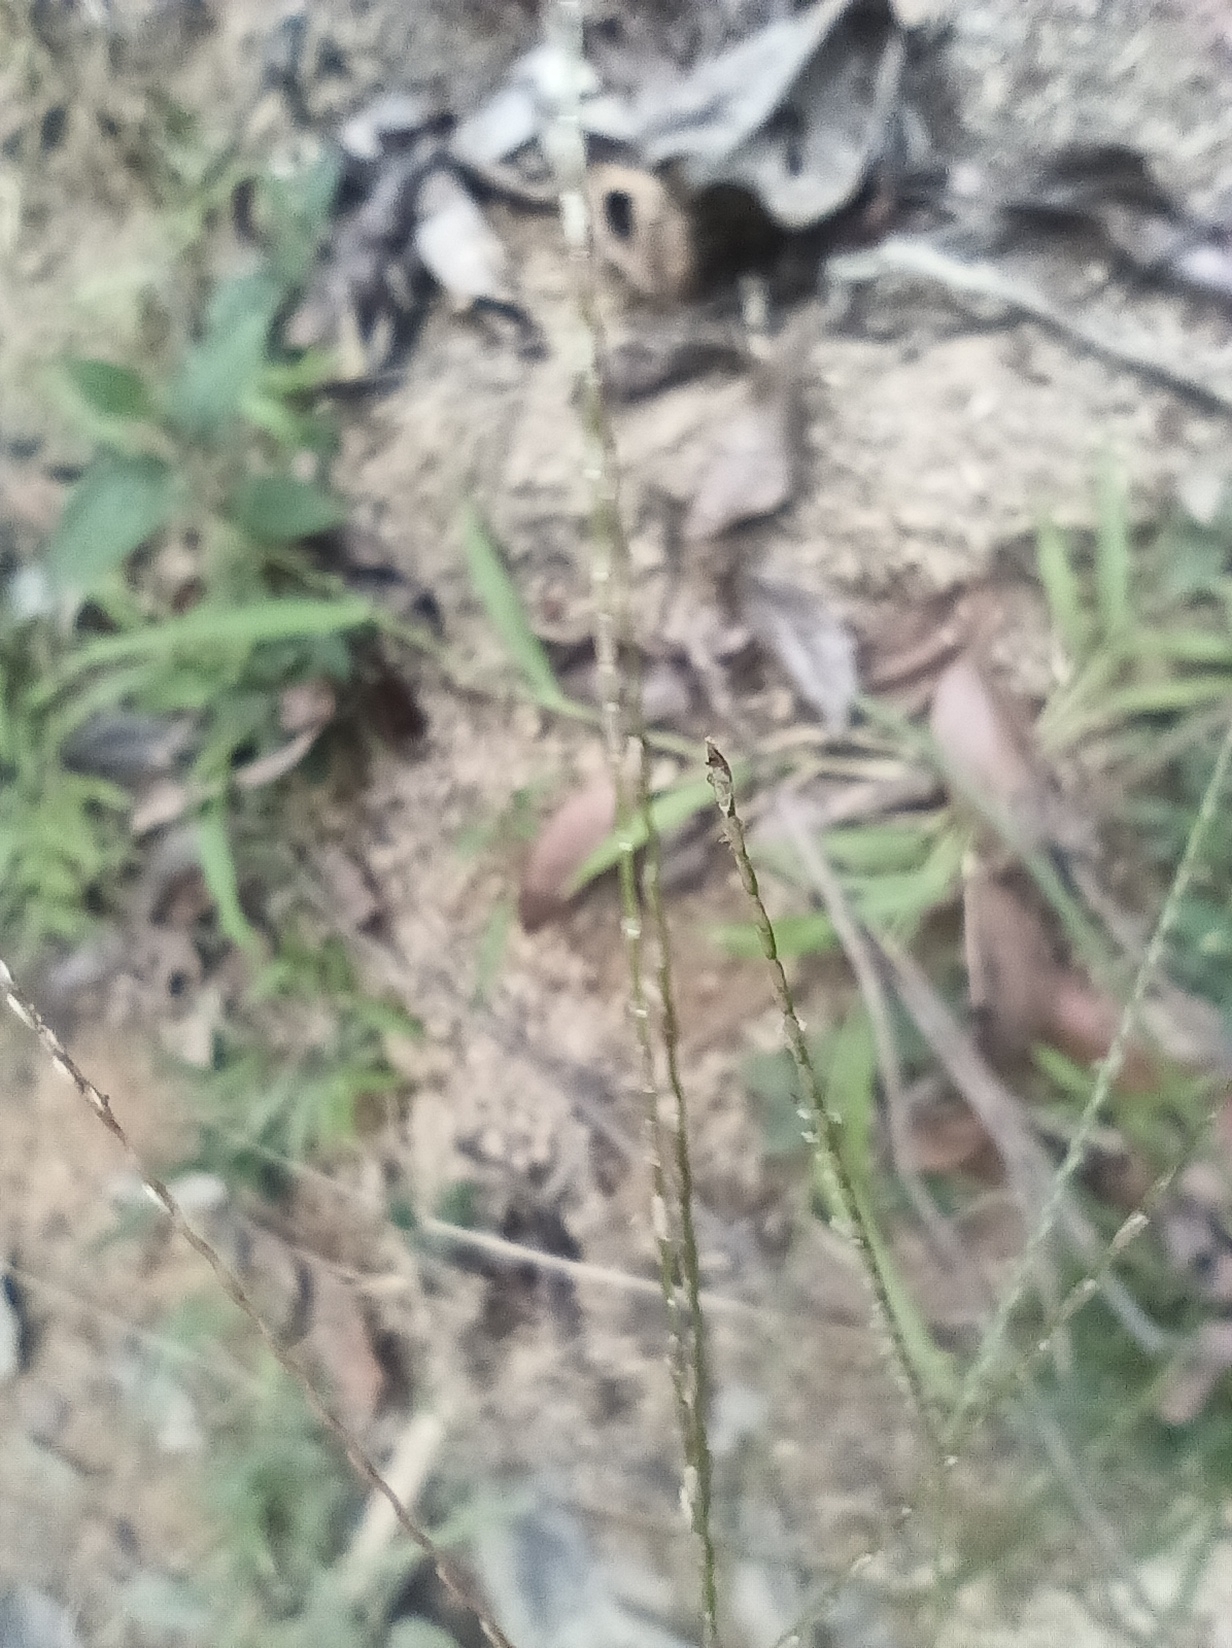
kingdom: Plantae
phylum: Tracheophyta
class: Liliopsida
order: Poales
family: Poaceae
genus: Axonopus
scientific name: Axonopus purpusii
